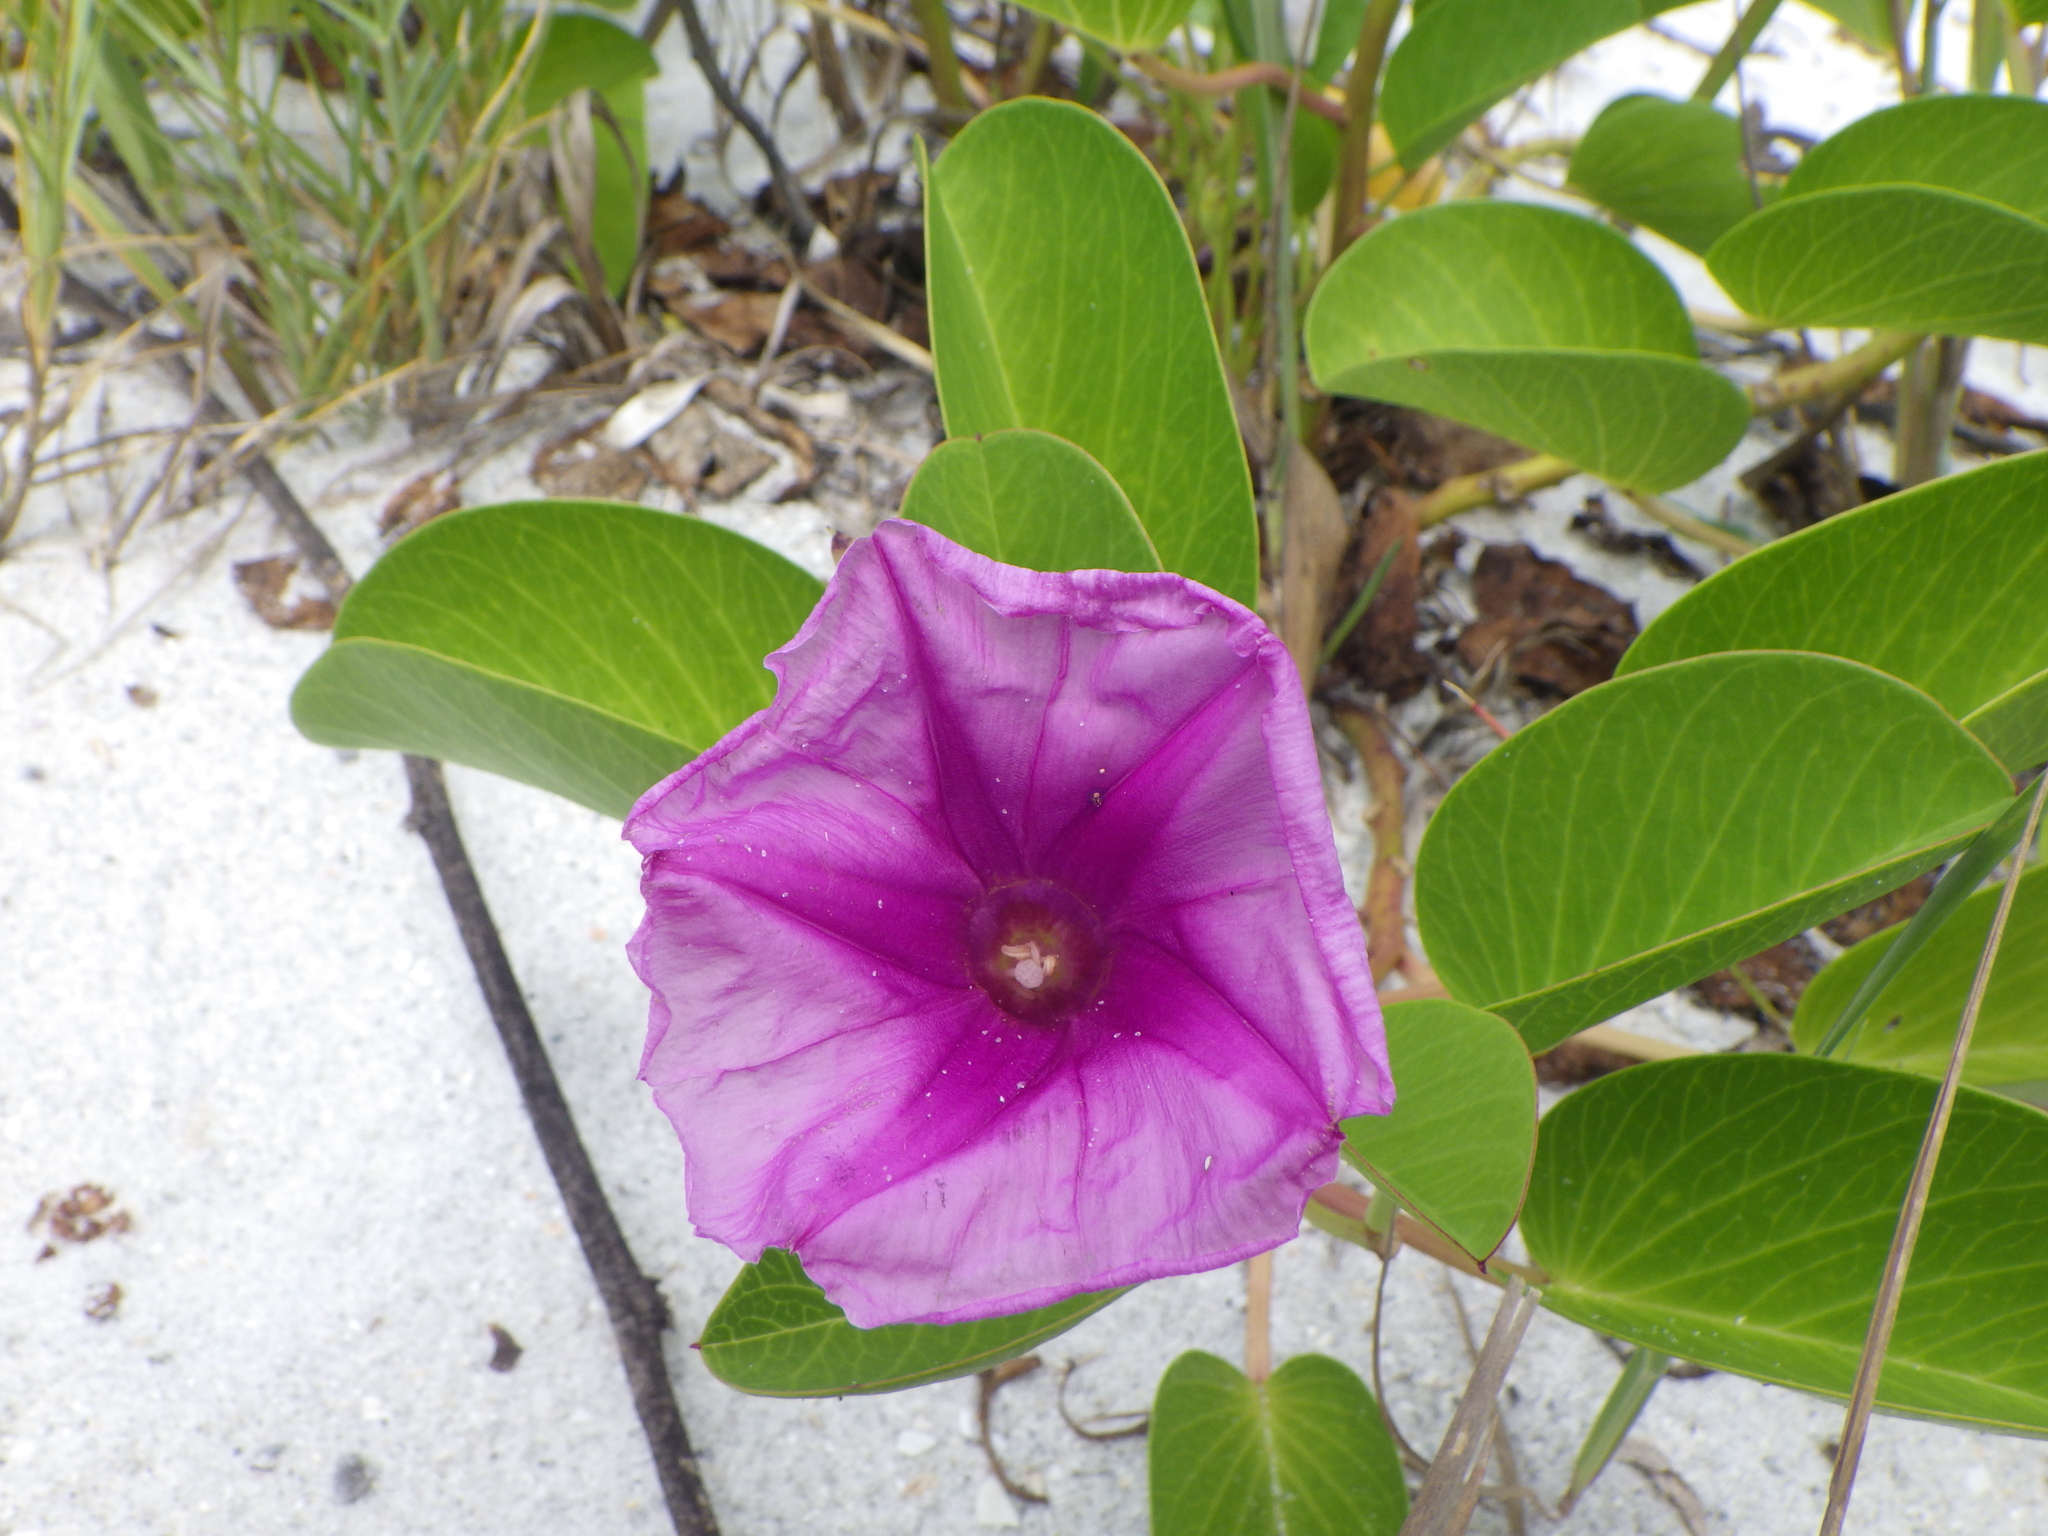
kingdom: Plantae
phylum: Tracheophyta
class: Magnoliopsida
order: Solanales
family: Convolvulaceae
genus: Ipomoea
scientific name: Ipomoea pes-caprae
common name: Beach morning glory
